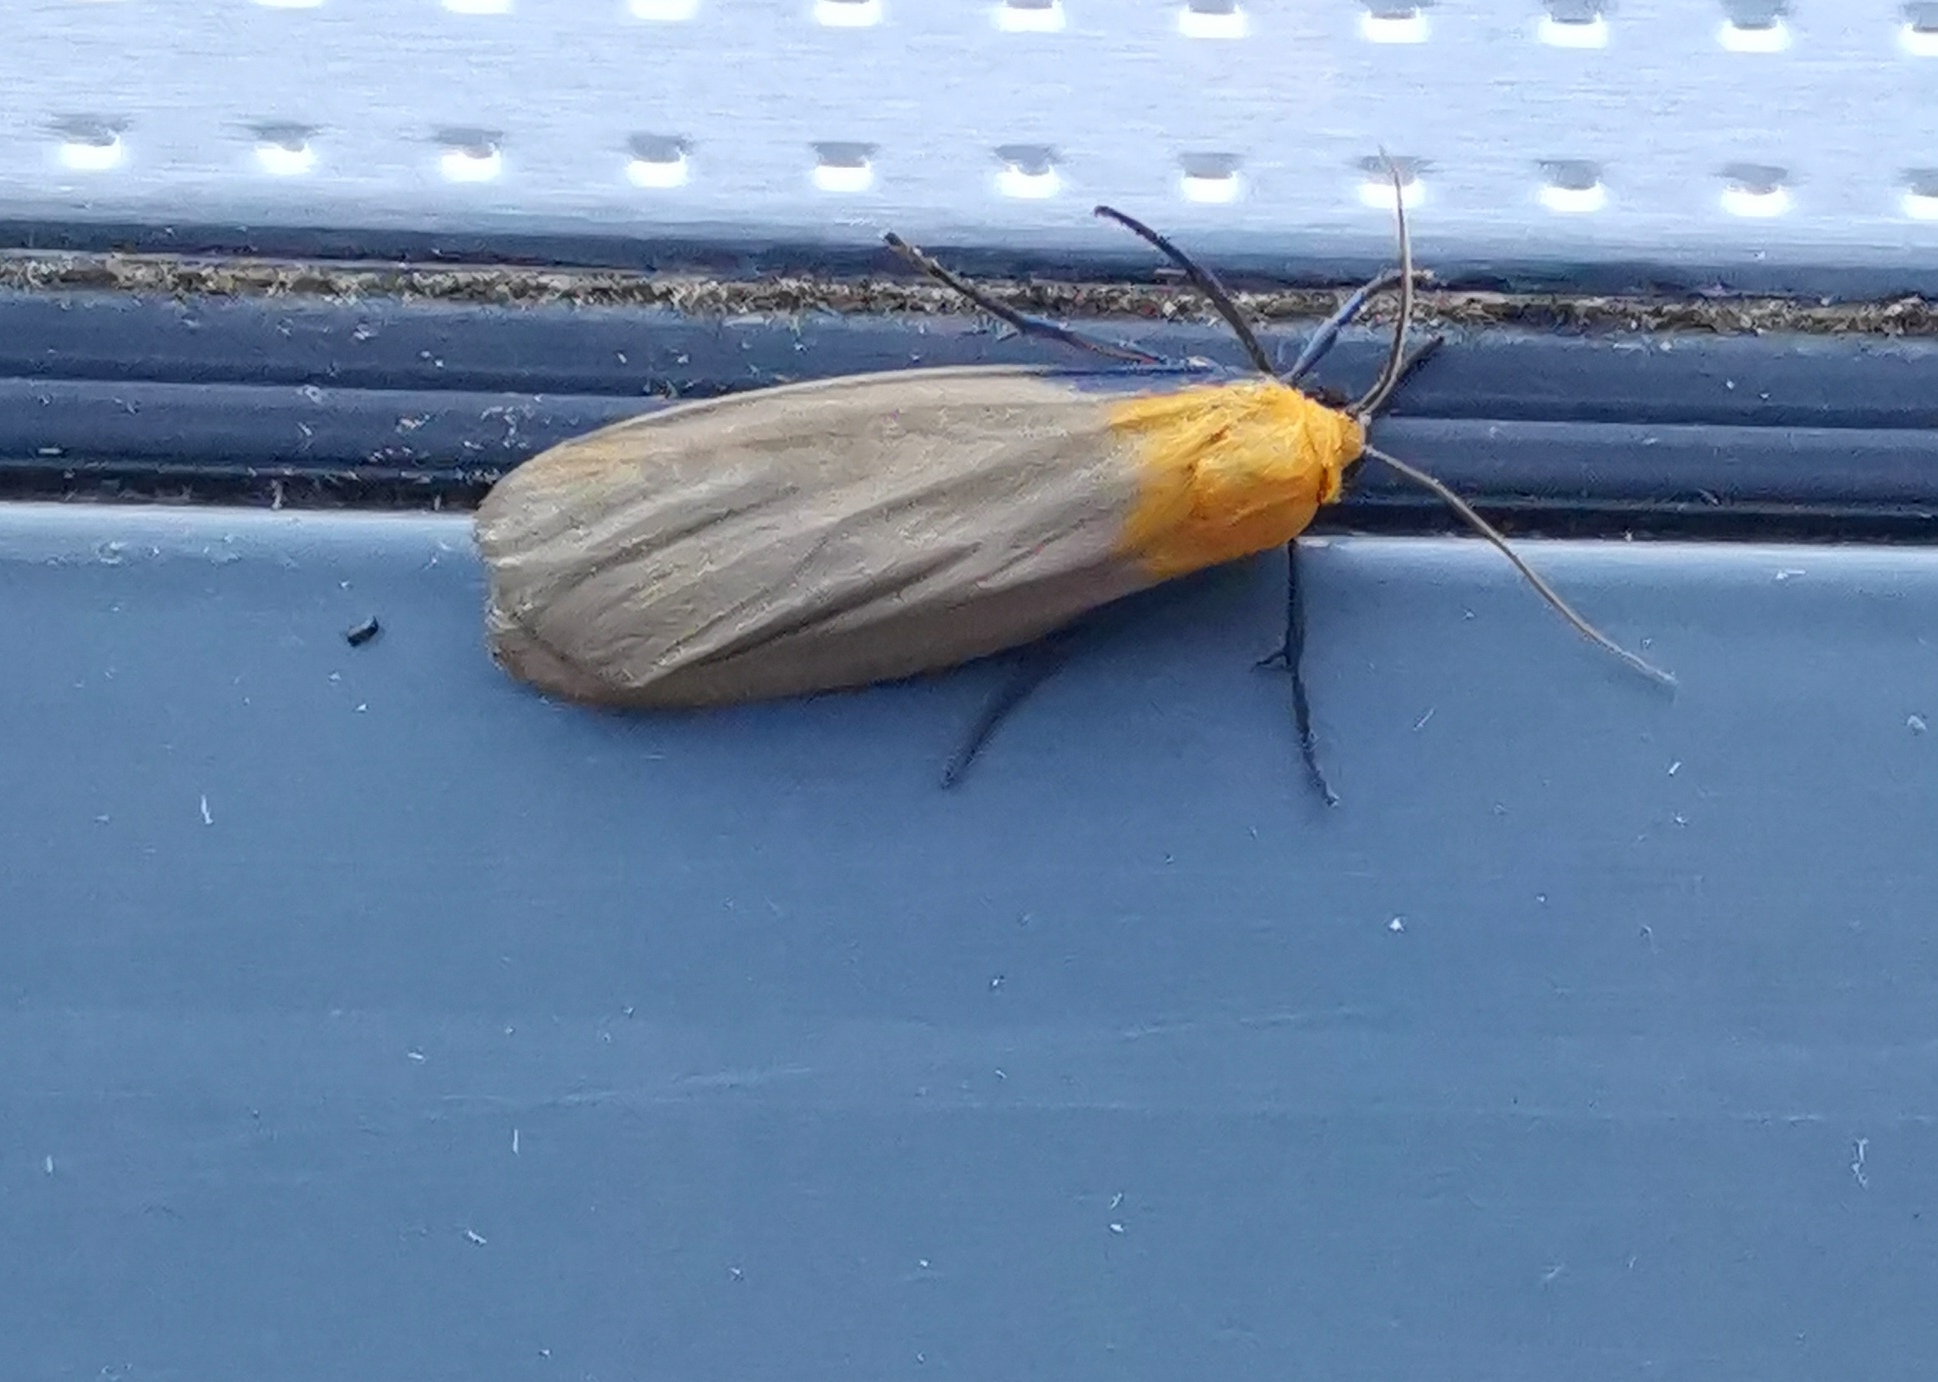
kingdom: Animalia
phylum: Arthropoda
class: Insecta
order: Lepidoptera
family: Erebidae
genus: Lithosia
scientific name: Lithosia quadra
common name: Four-spotted footman
